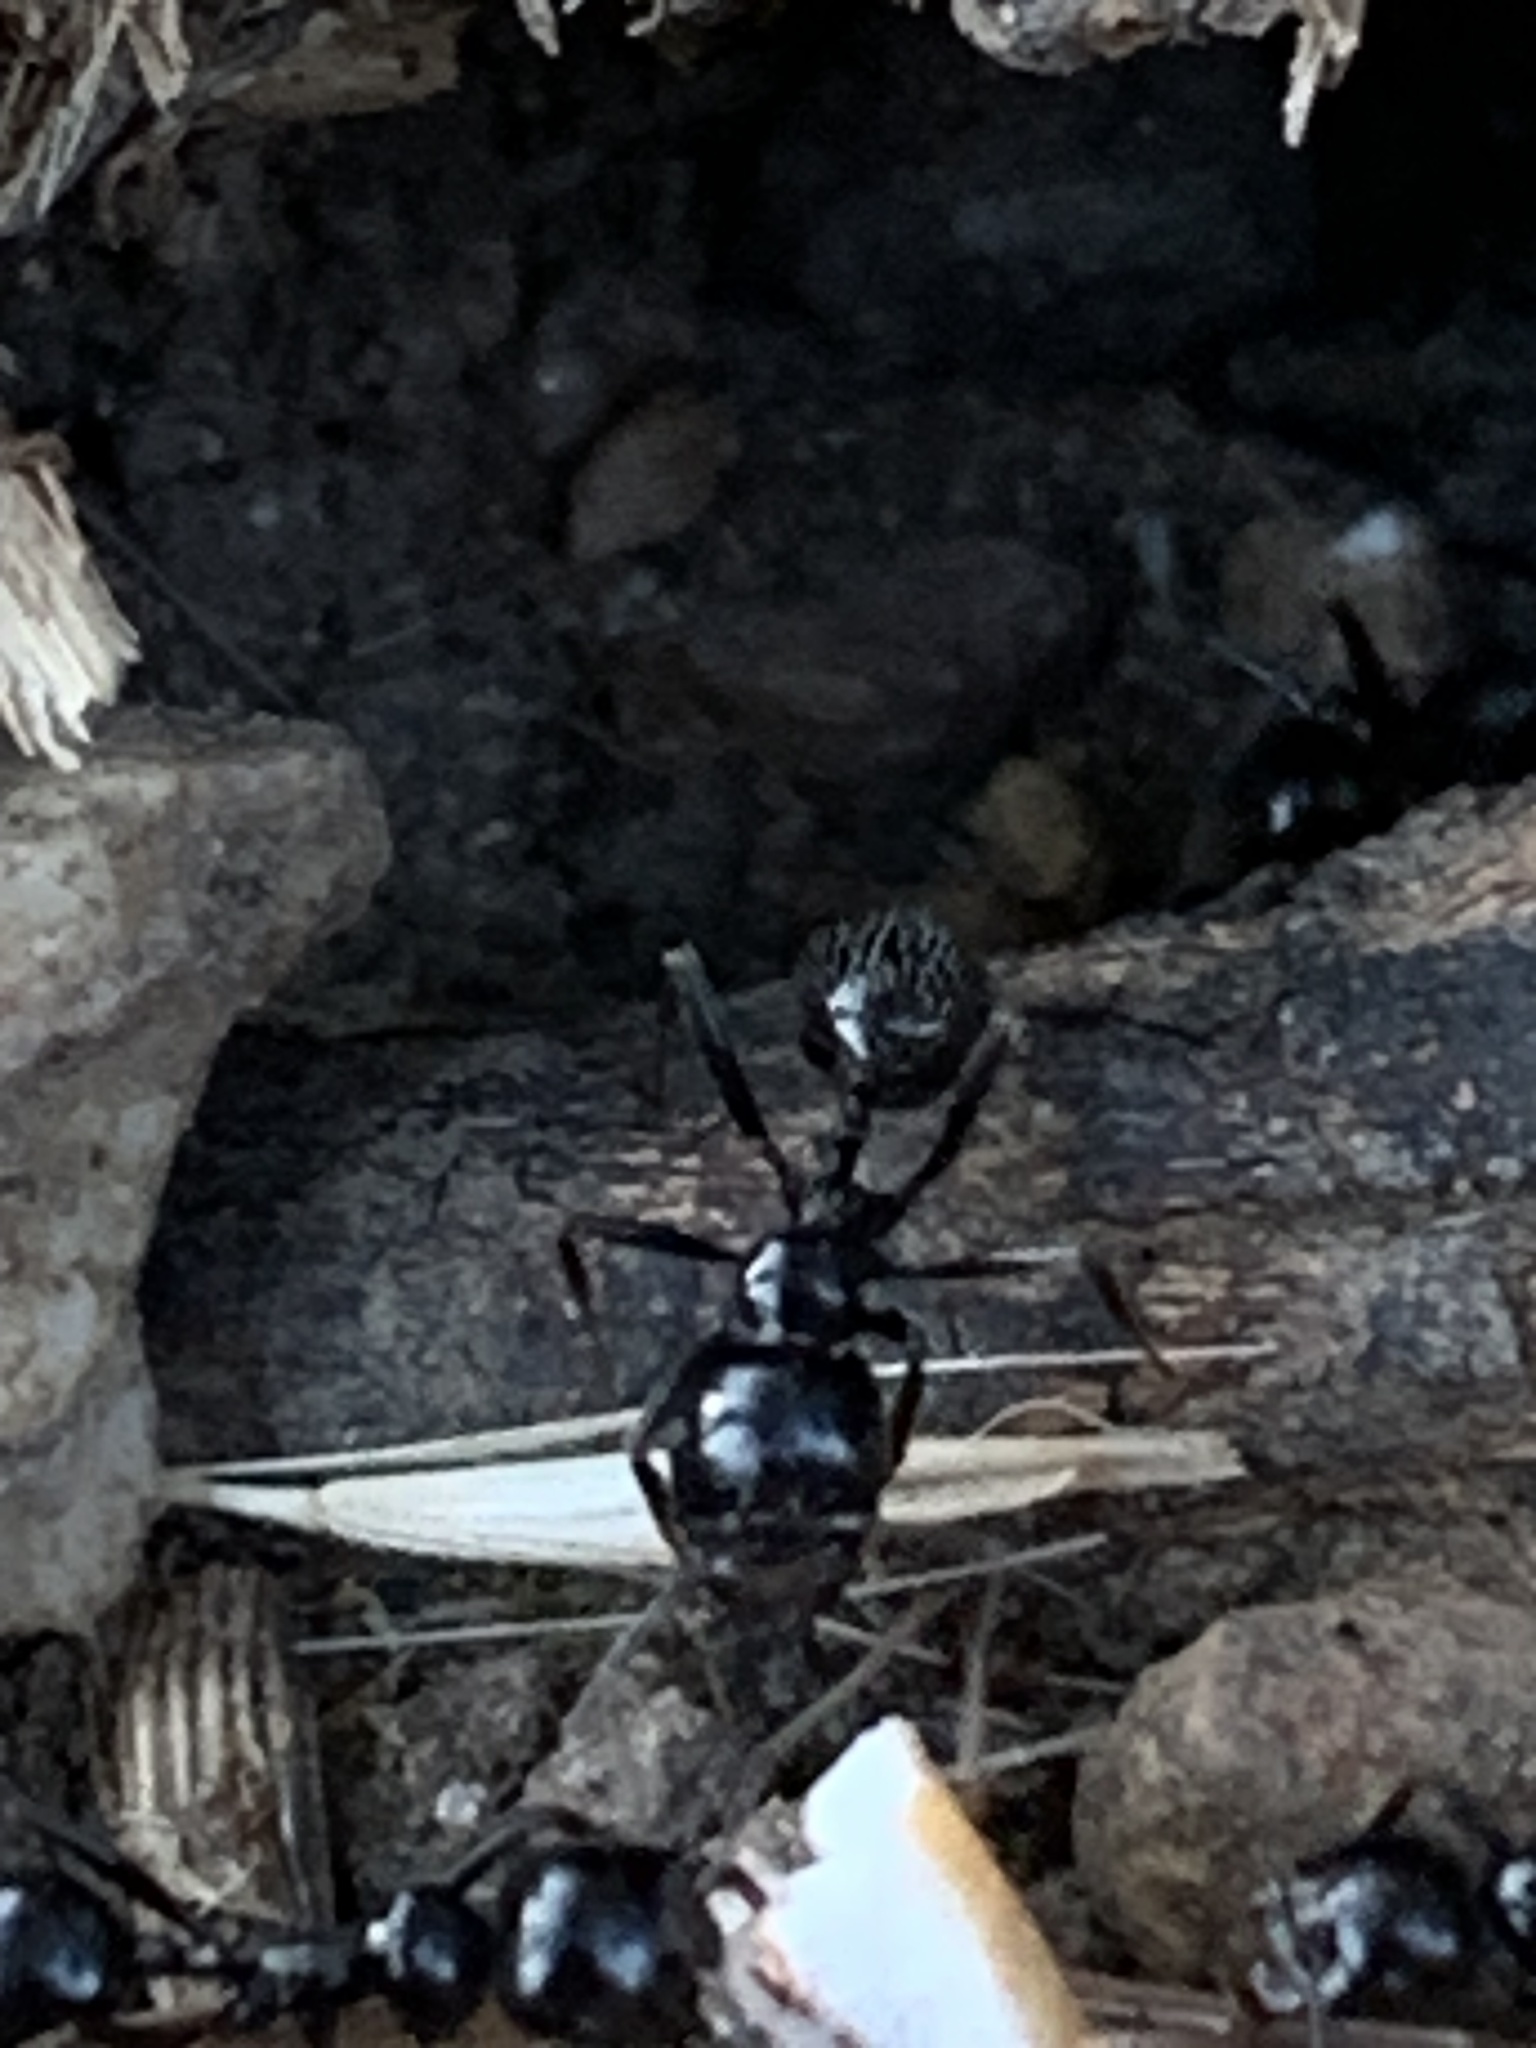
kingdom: Animalia
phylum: Arthropoda
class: Insecta
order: Hymenoptera
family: Formicidae
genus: Messor
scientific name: Messor barbarus
